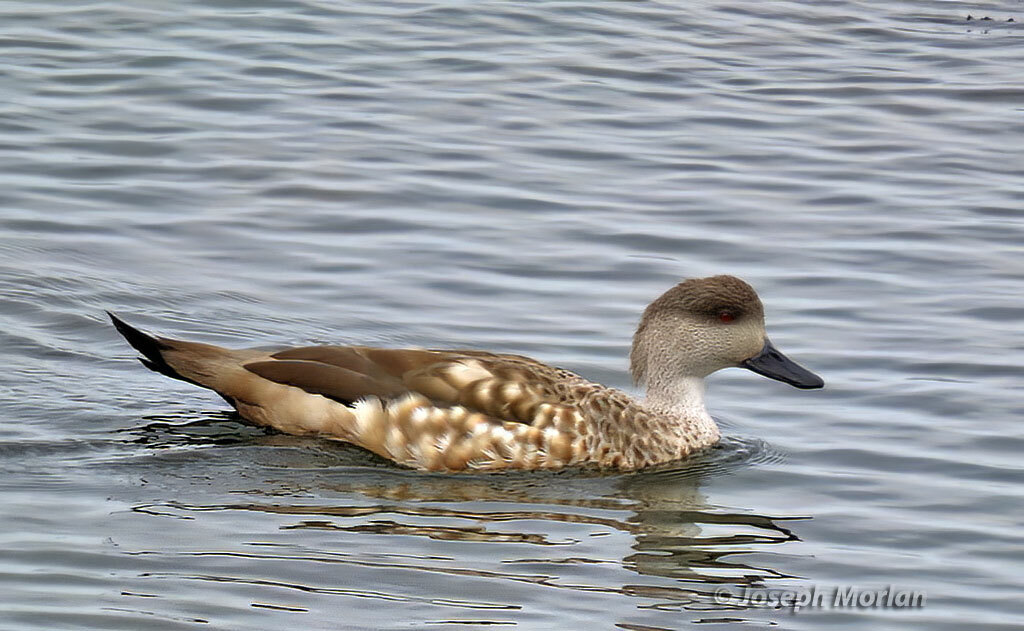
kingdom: Animalia
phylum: Chordata
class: Aves
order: Anseriformes
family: Anatidae
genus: Lophonetta
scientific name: Lophonetta specularioides
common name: Crested duck
